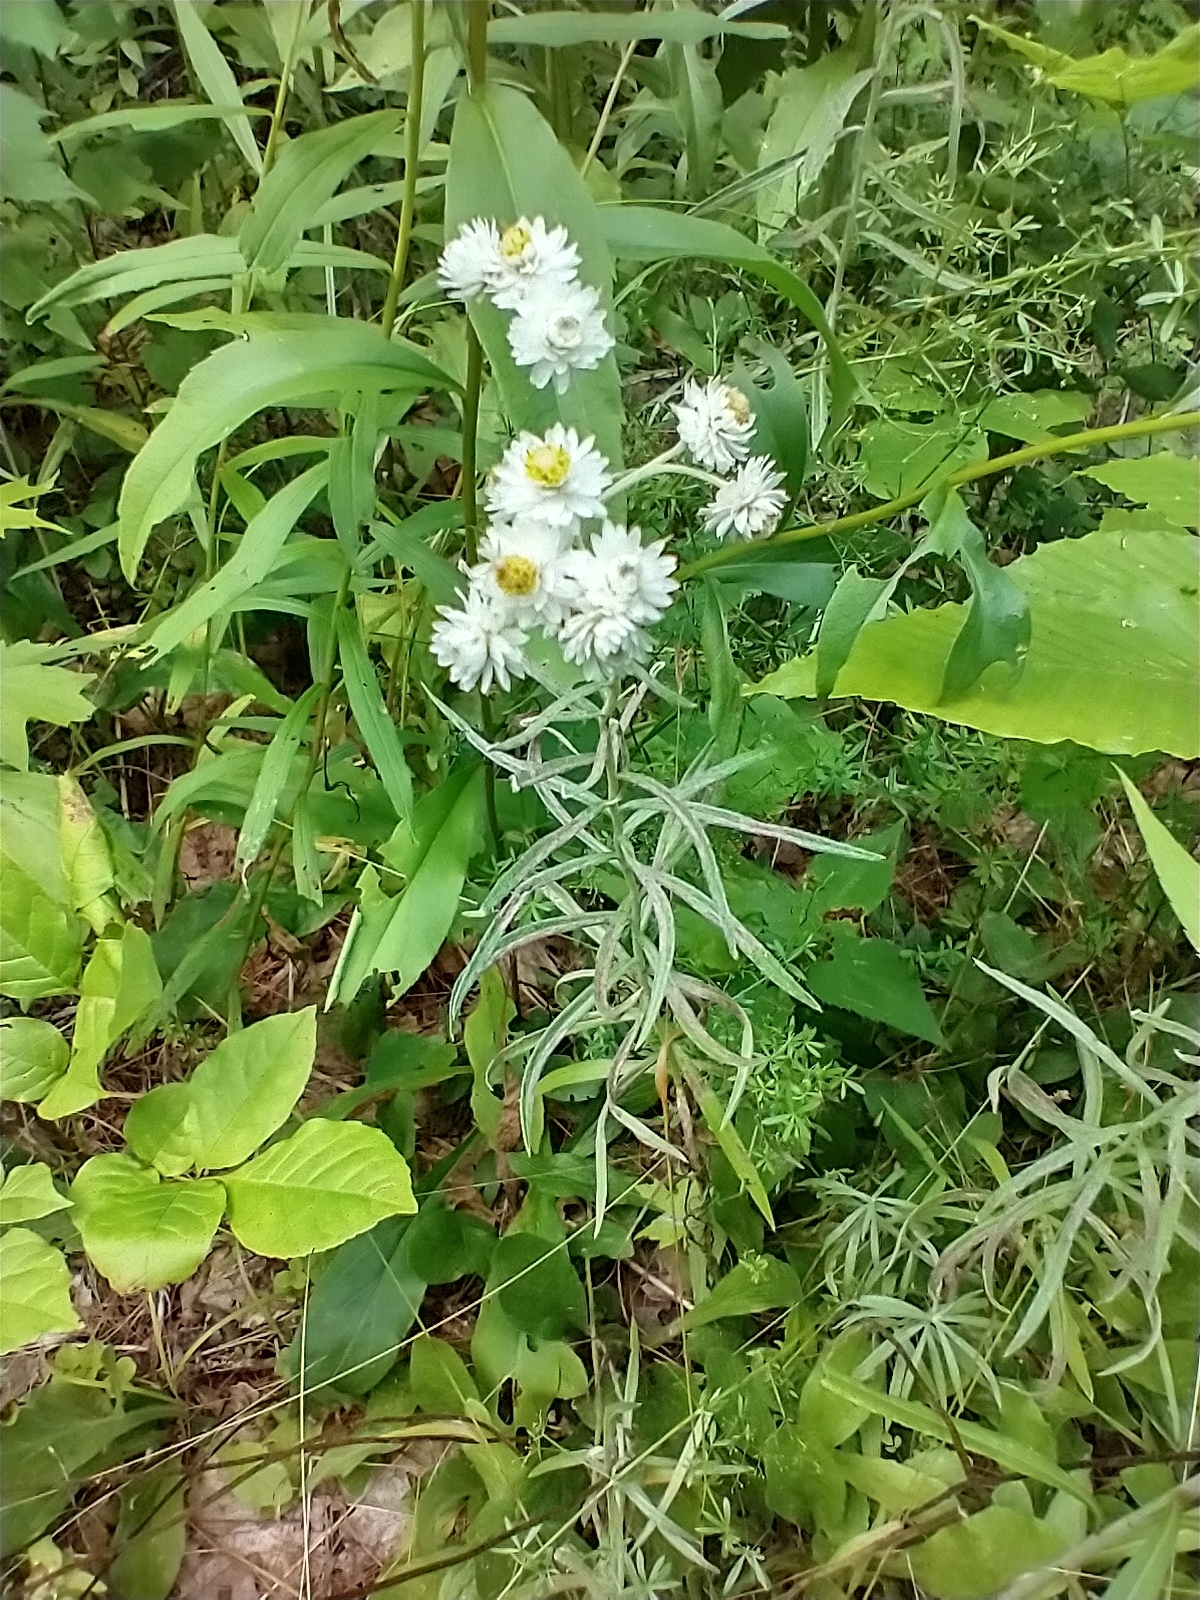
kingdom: Plantae
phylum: Tracheophyta
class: Magnoliopsida
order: Asterales
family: Asteraceae
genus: Anaphalis
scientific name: Anaphalis margaritacea
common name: Pearly everlasting
